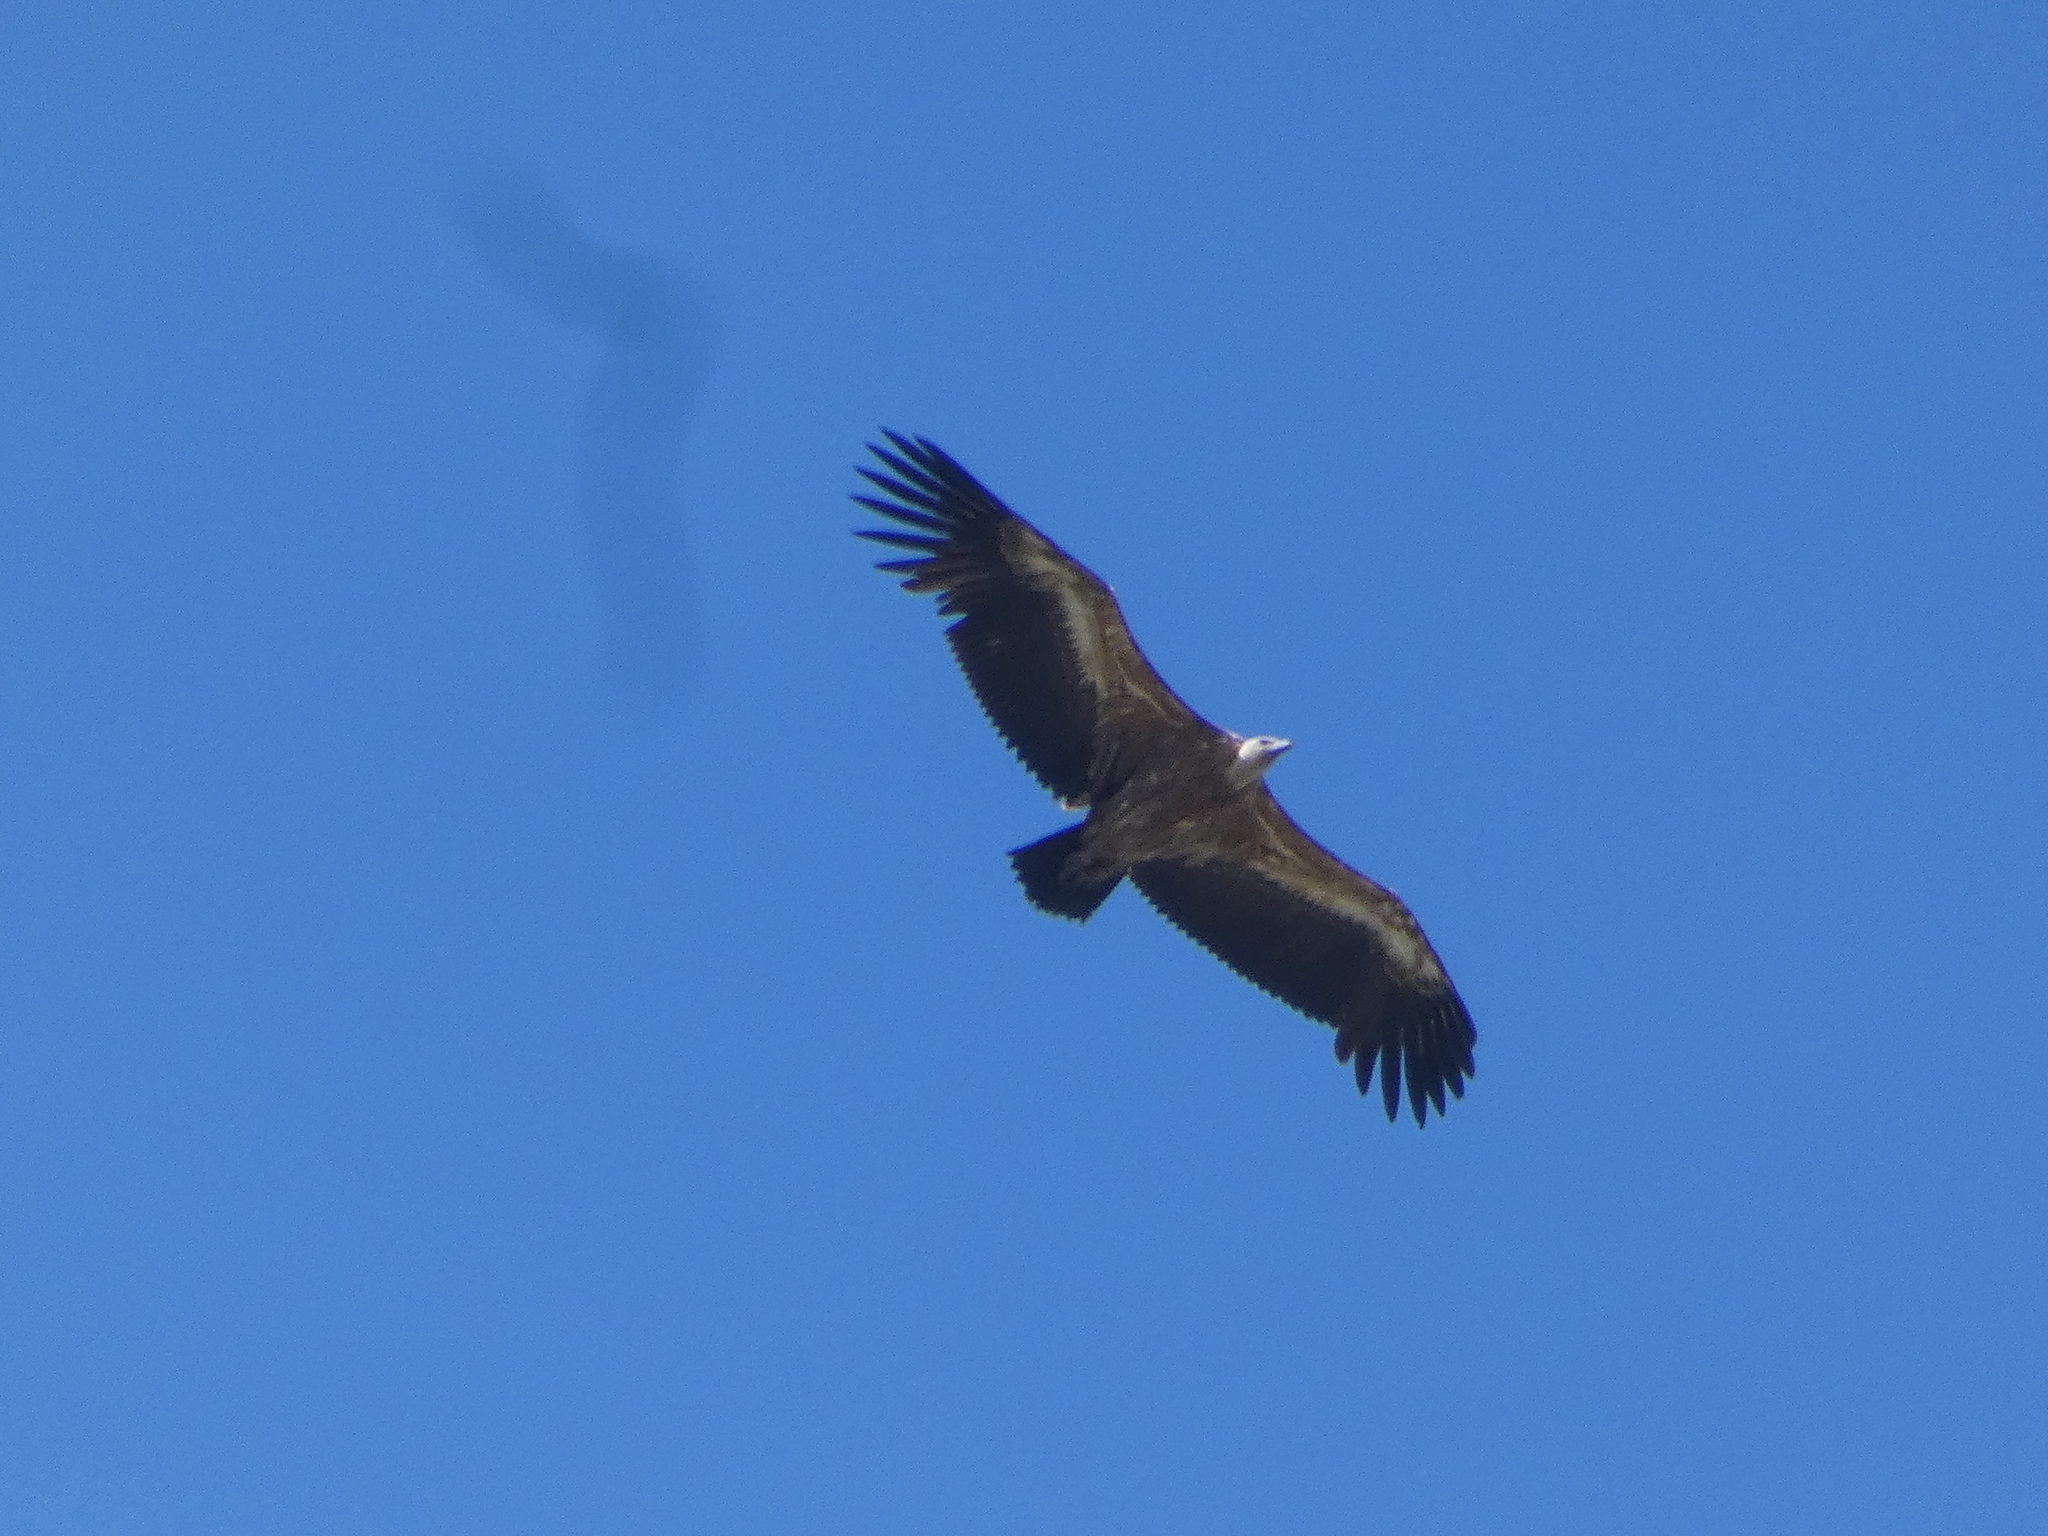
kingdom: Animalia
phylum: Chordata
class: Aves
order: Accipitriformes
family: Accipitridae
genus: Gyps
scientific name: Gyps fulvus
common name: Griffon vulture
